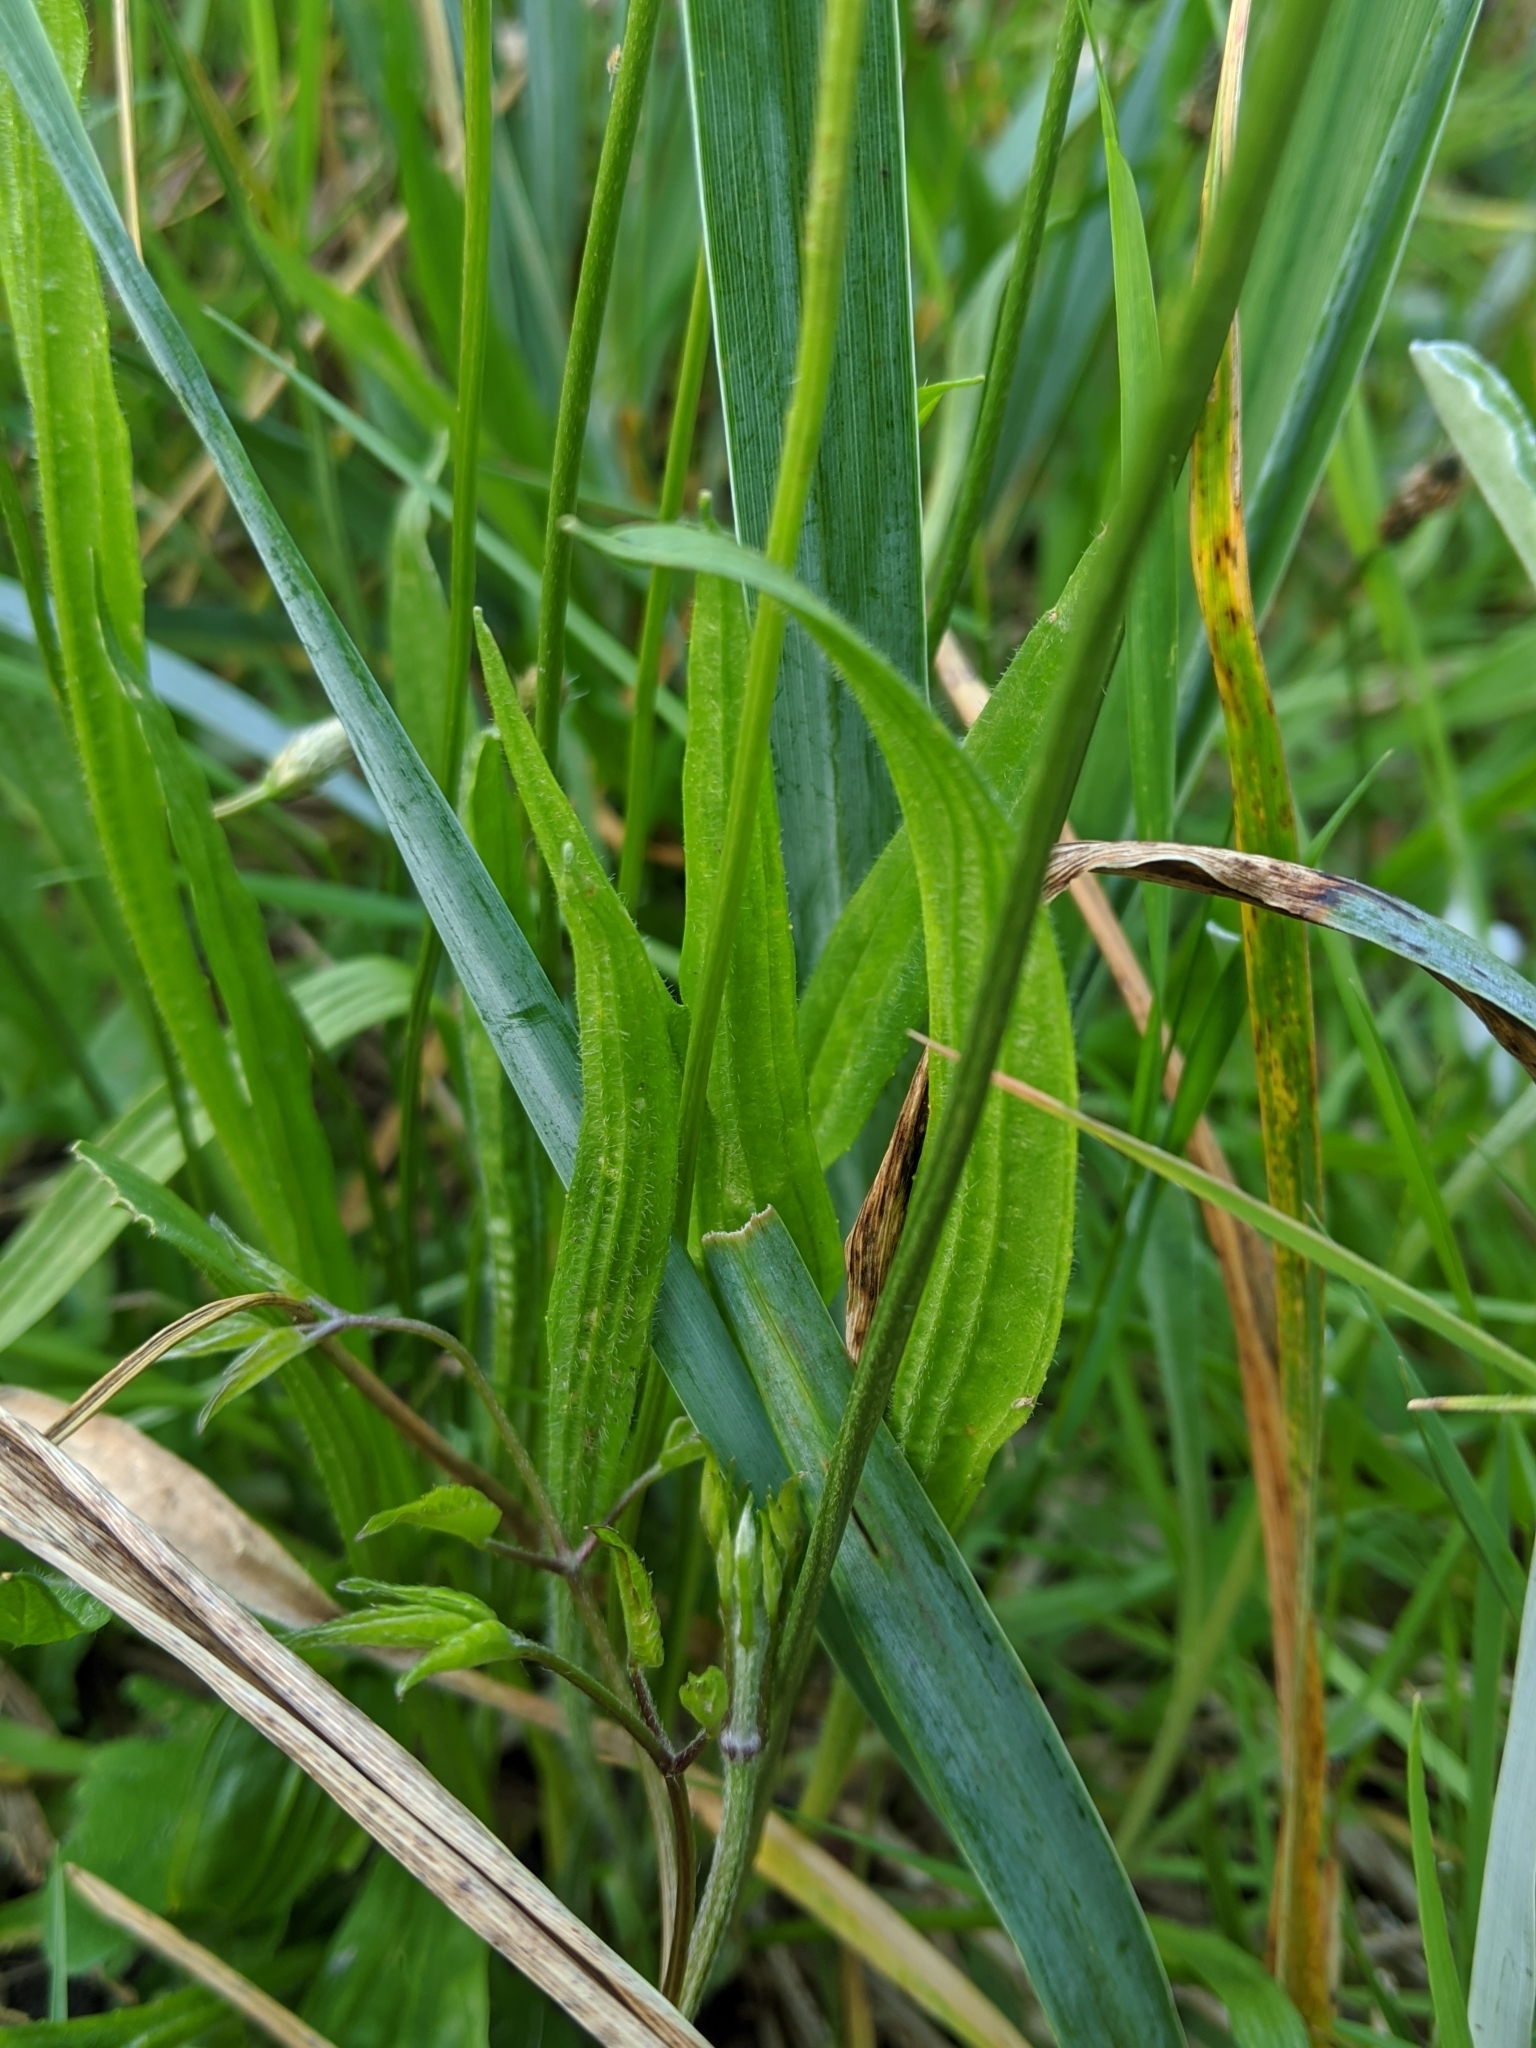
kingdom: Plantae
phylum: Tracheophyta
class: Magnoliopsida
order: Lamiales
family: Plantaginaceae
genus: Plantago
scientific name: Plantago lanceolata
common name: Ribwort plantain
